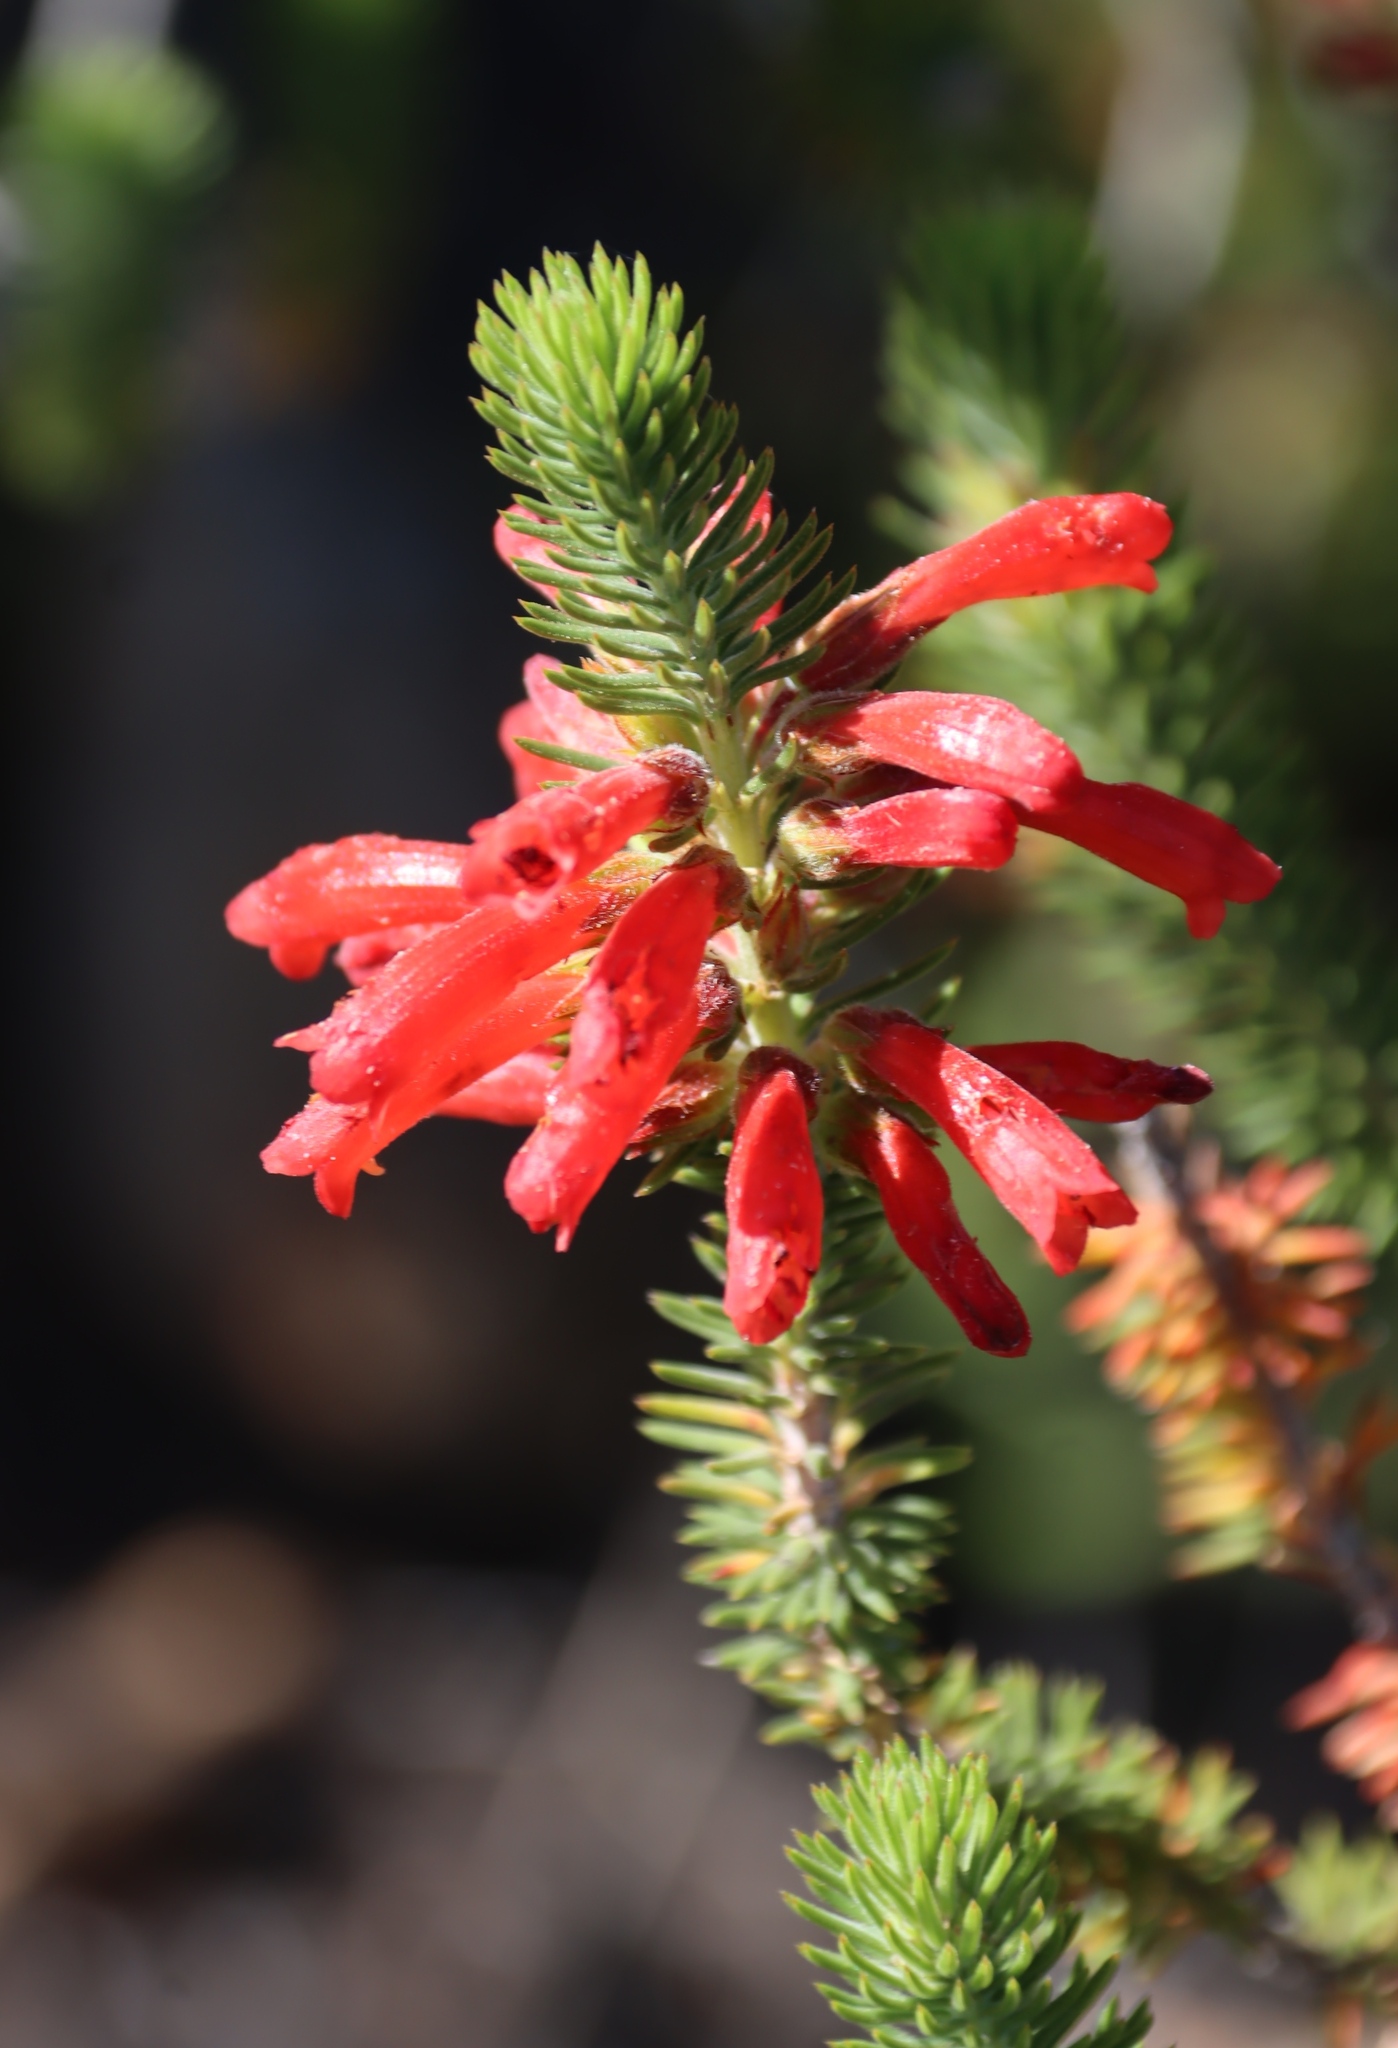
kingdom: Plantae
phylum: Tracheophyta
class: Magnoliopsida
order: Ericales
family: Ericaceae
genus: Erica
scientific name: Erica abietina
